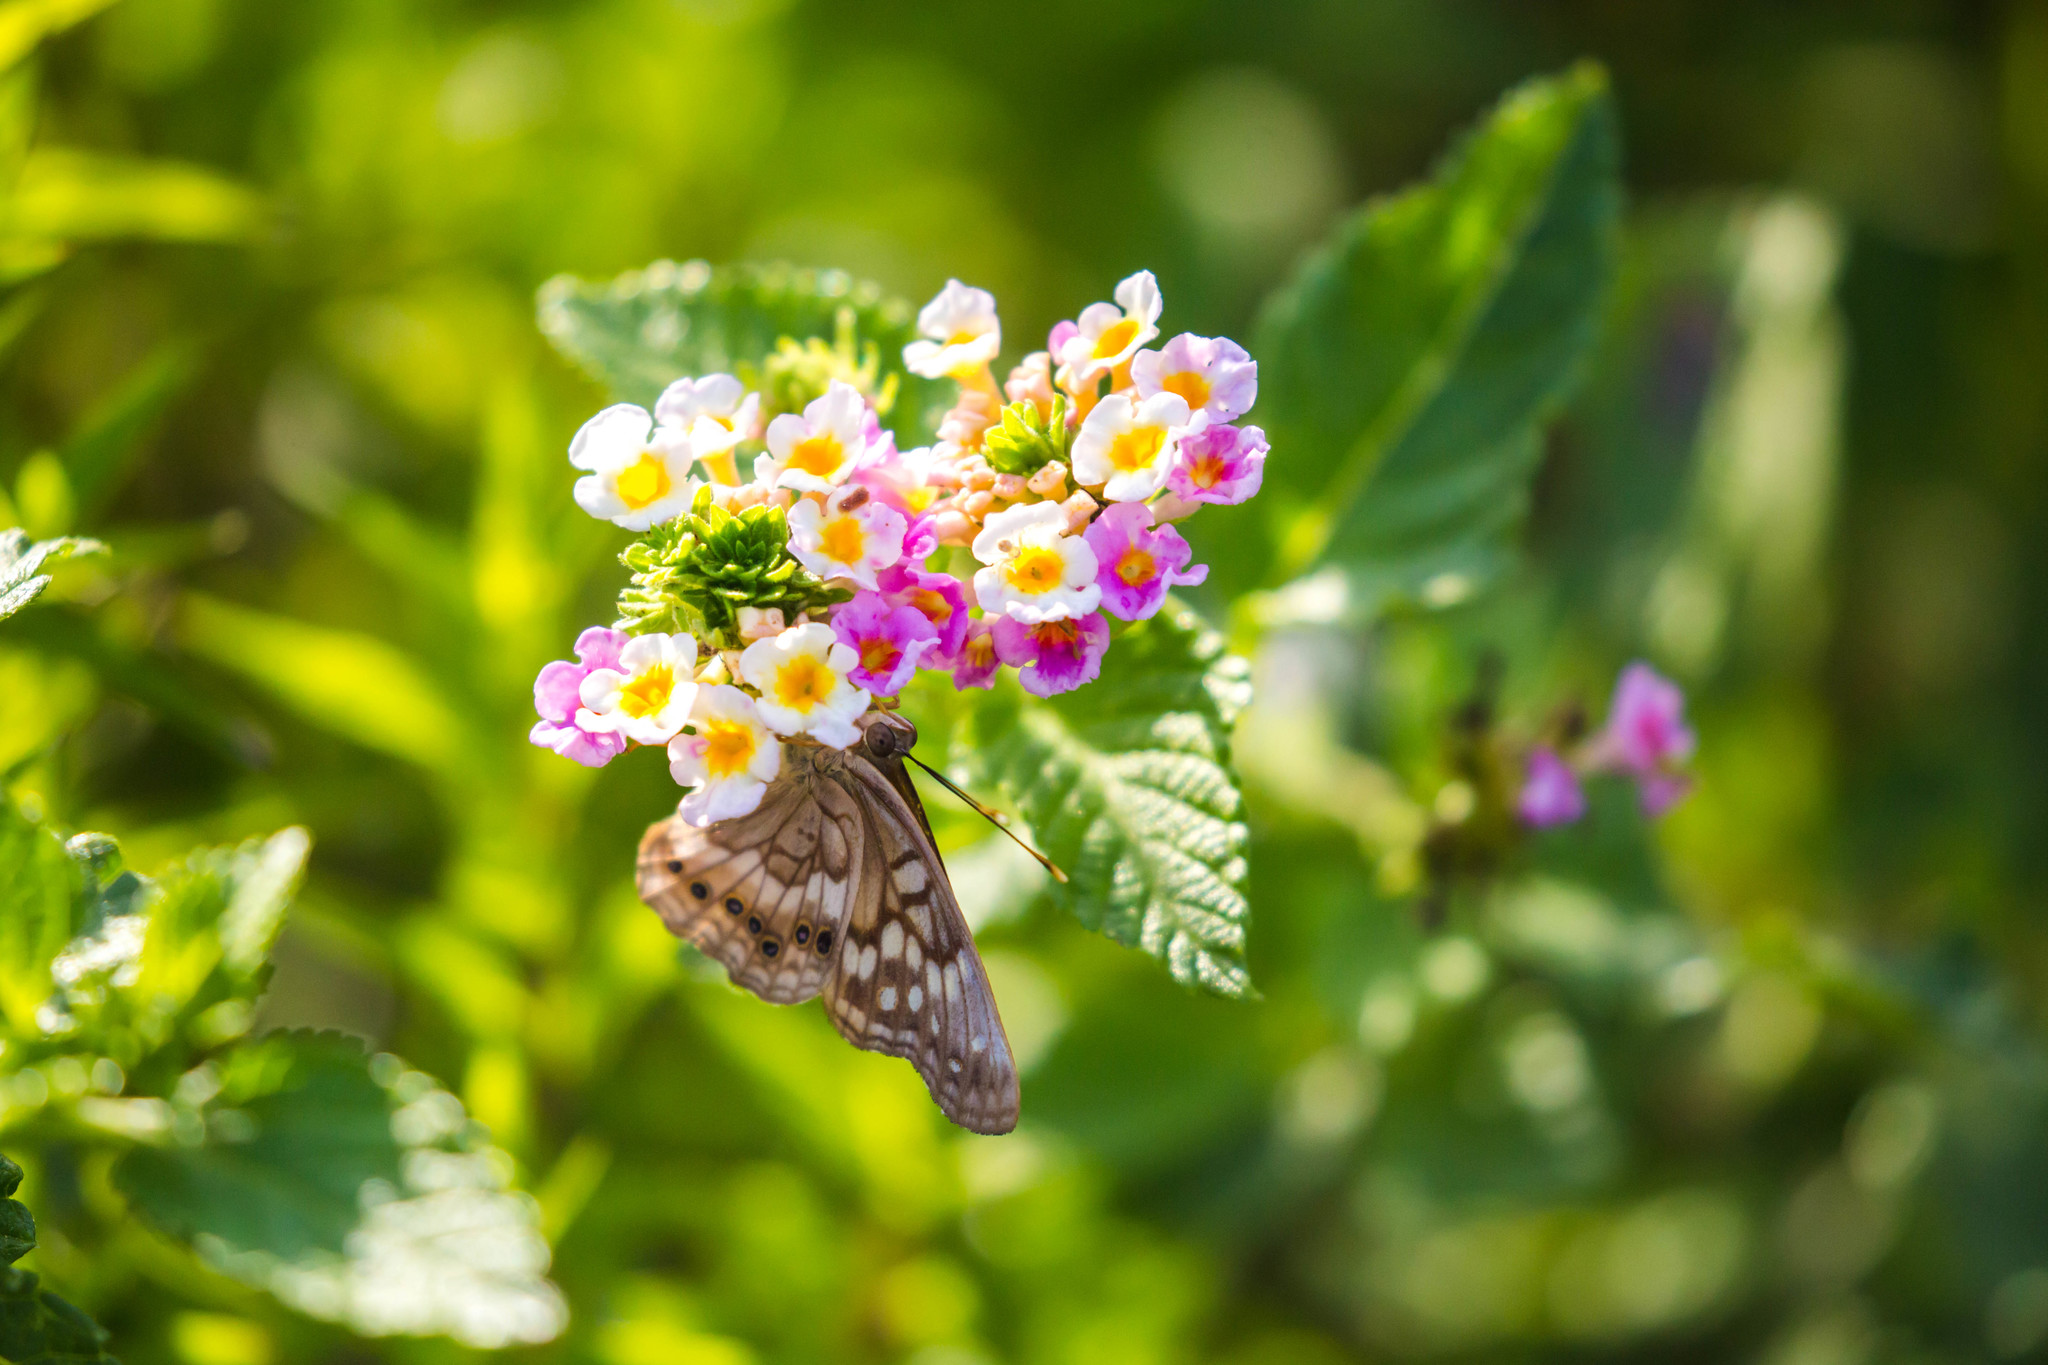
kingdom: Animalia
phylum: Arthropoda
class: Insecta
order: Lepidoptera
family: Nymphalidae
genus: Asterocampa
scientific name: Asterocampa clyton
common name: Tawny emperor
